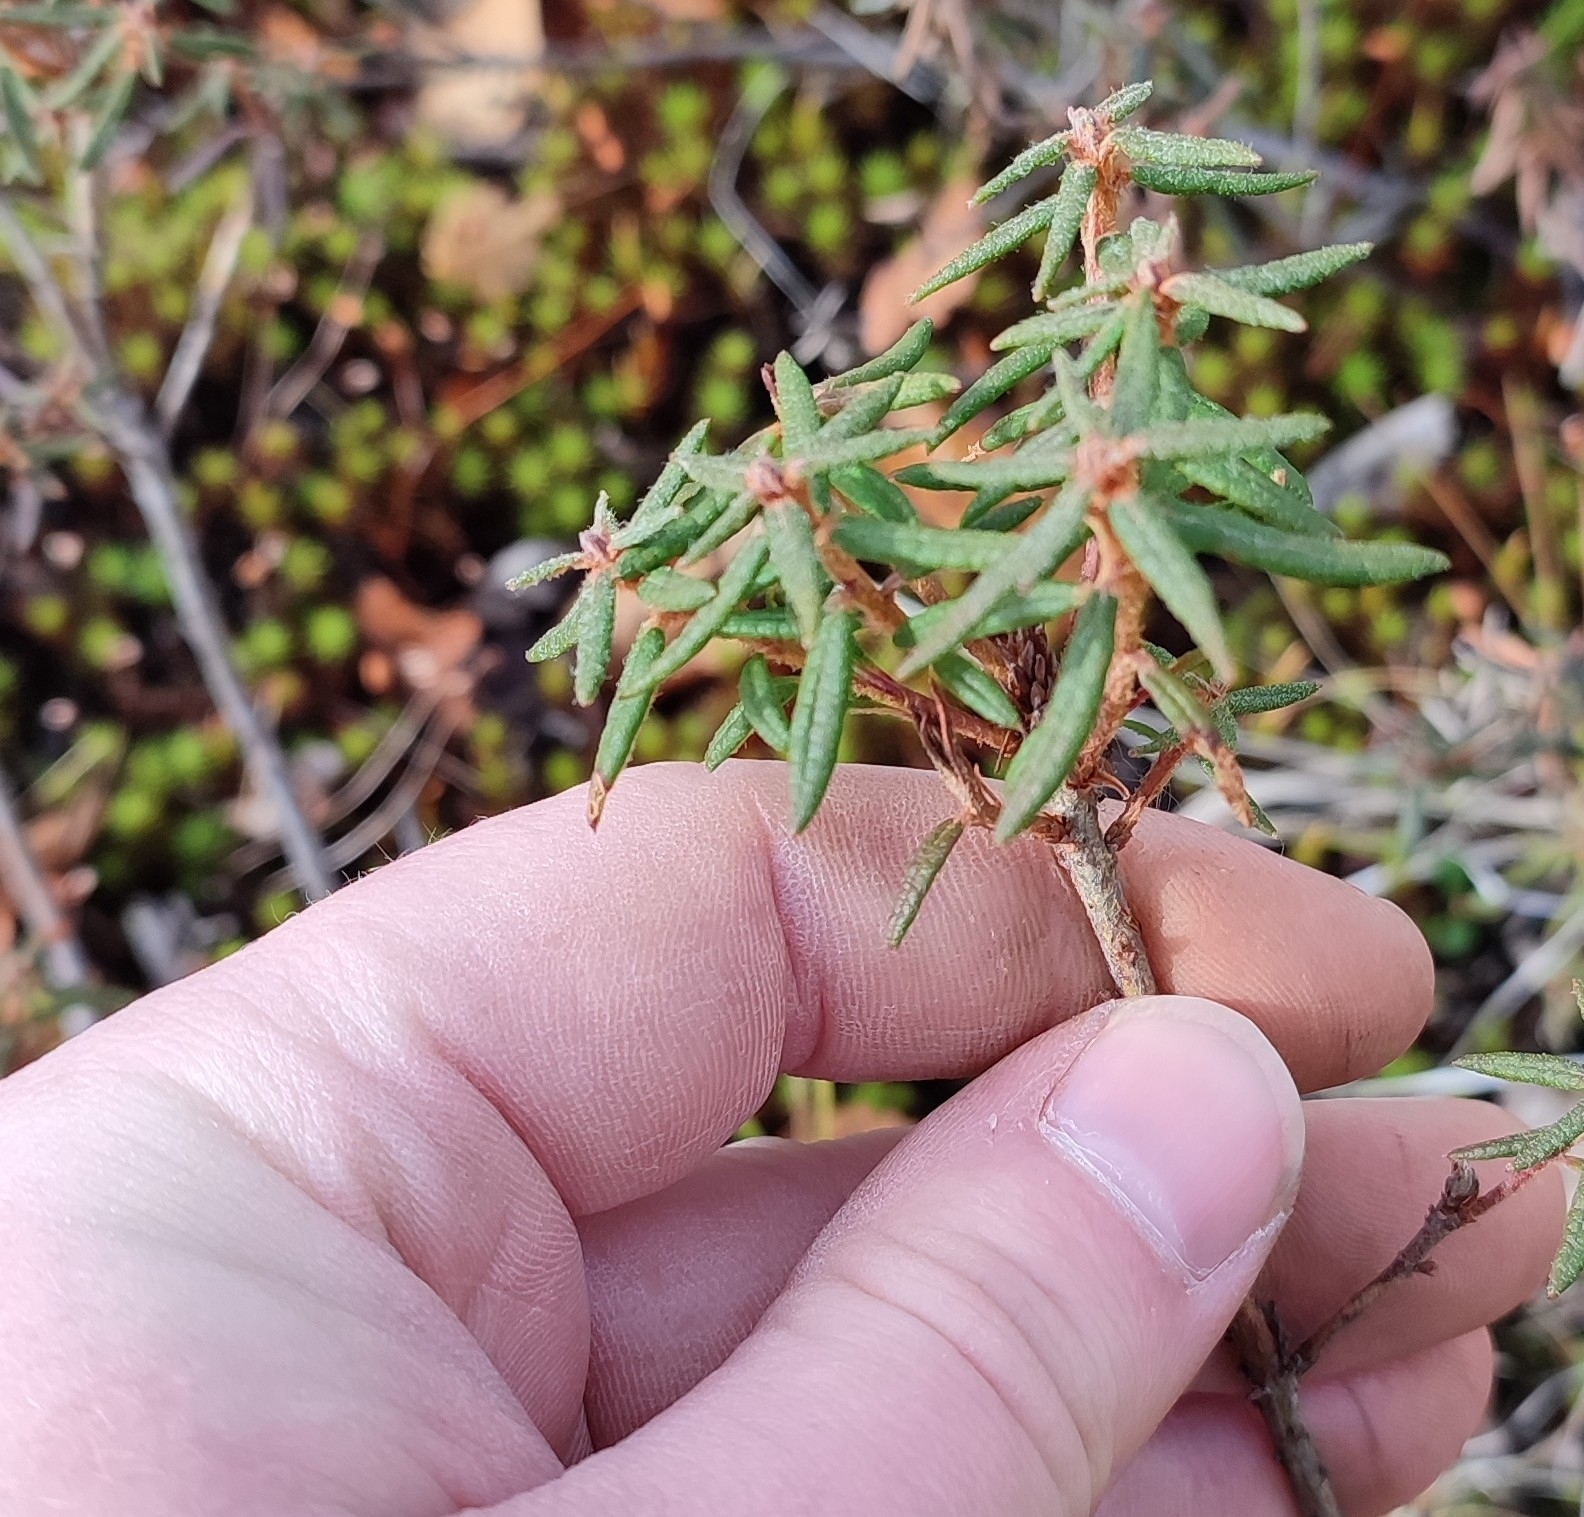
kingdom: Plantae
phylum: Tracheophyta
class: Magnoliopsida
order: Ericales
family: Ericaceae
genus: Rhododendron
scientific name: Rhododendron tomentosum
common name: Marsh labrador tea
